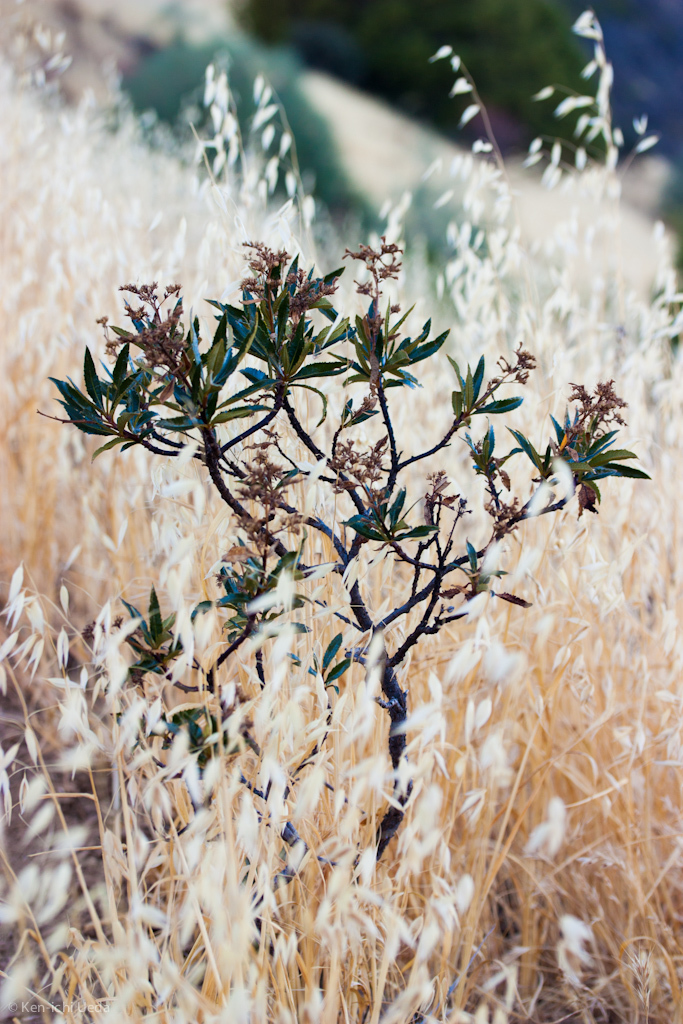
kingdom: Plantae
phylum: Tracheophyta
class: Magnoliopsida
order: Boraginales
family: Namaceae
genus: Eriodictyon
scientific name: Eriodictyon californicum
